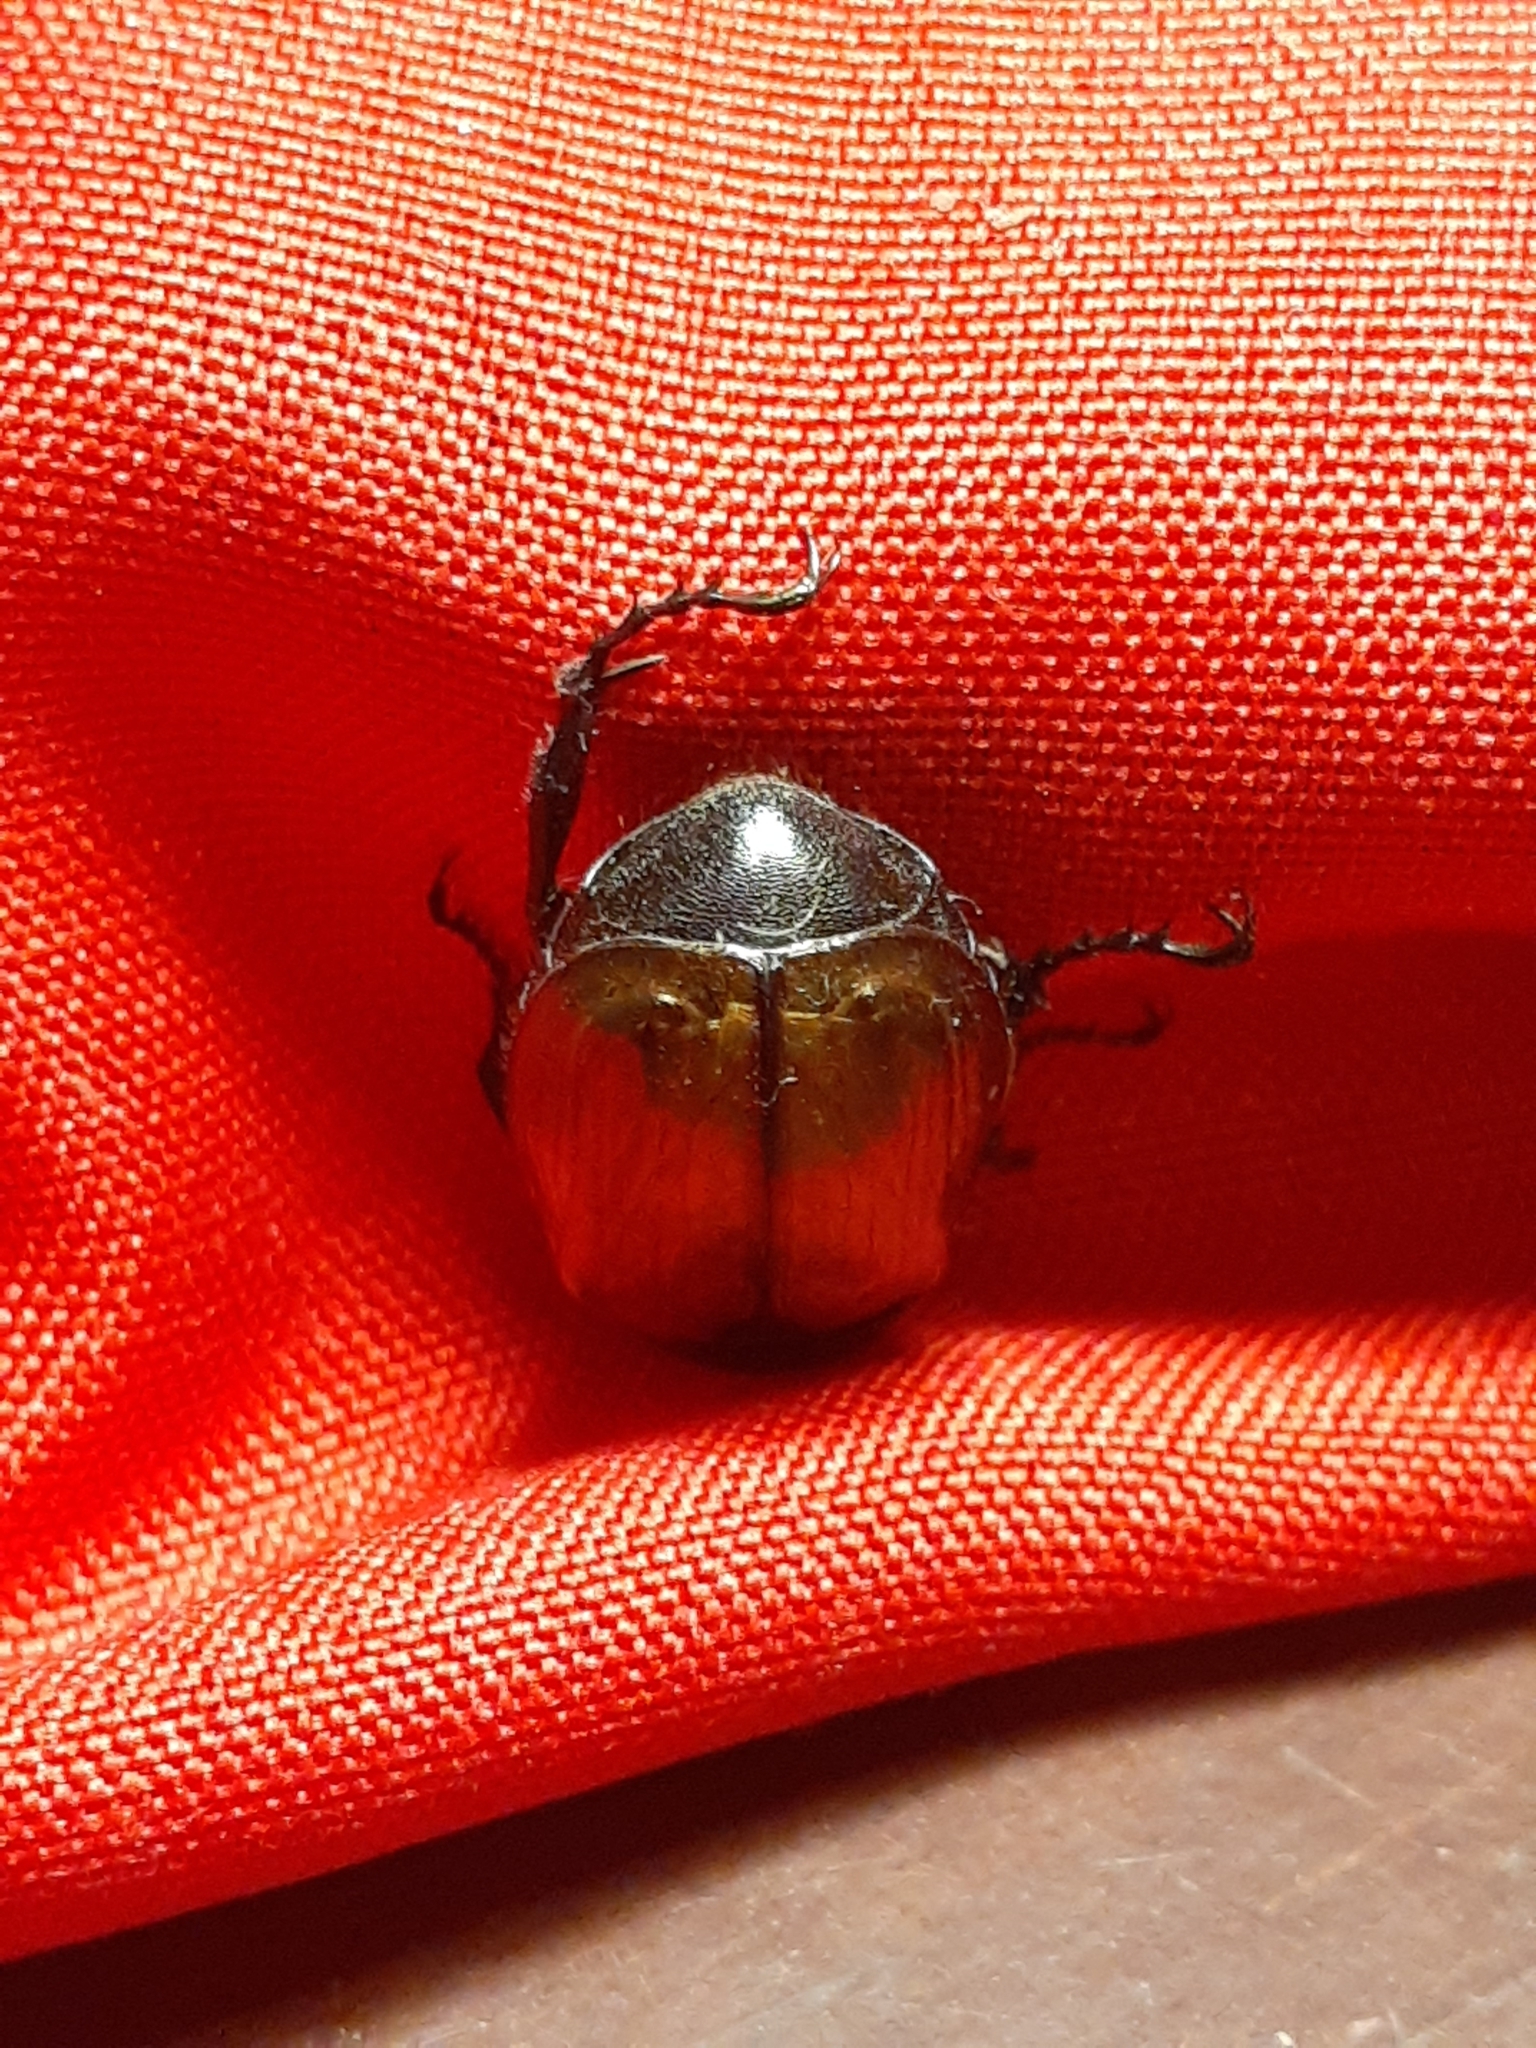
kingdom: Animalia
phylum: Arthropoda
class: Insecta
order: Coleoptera
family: Scarabaeidae
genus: Paranomala
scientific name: Paranomala testaceipennis
